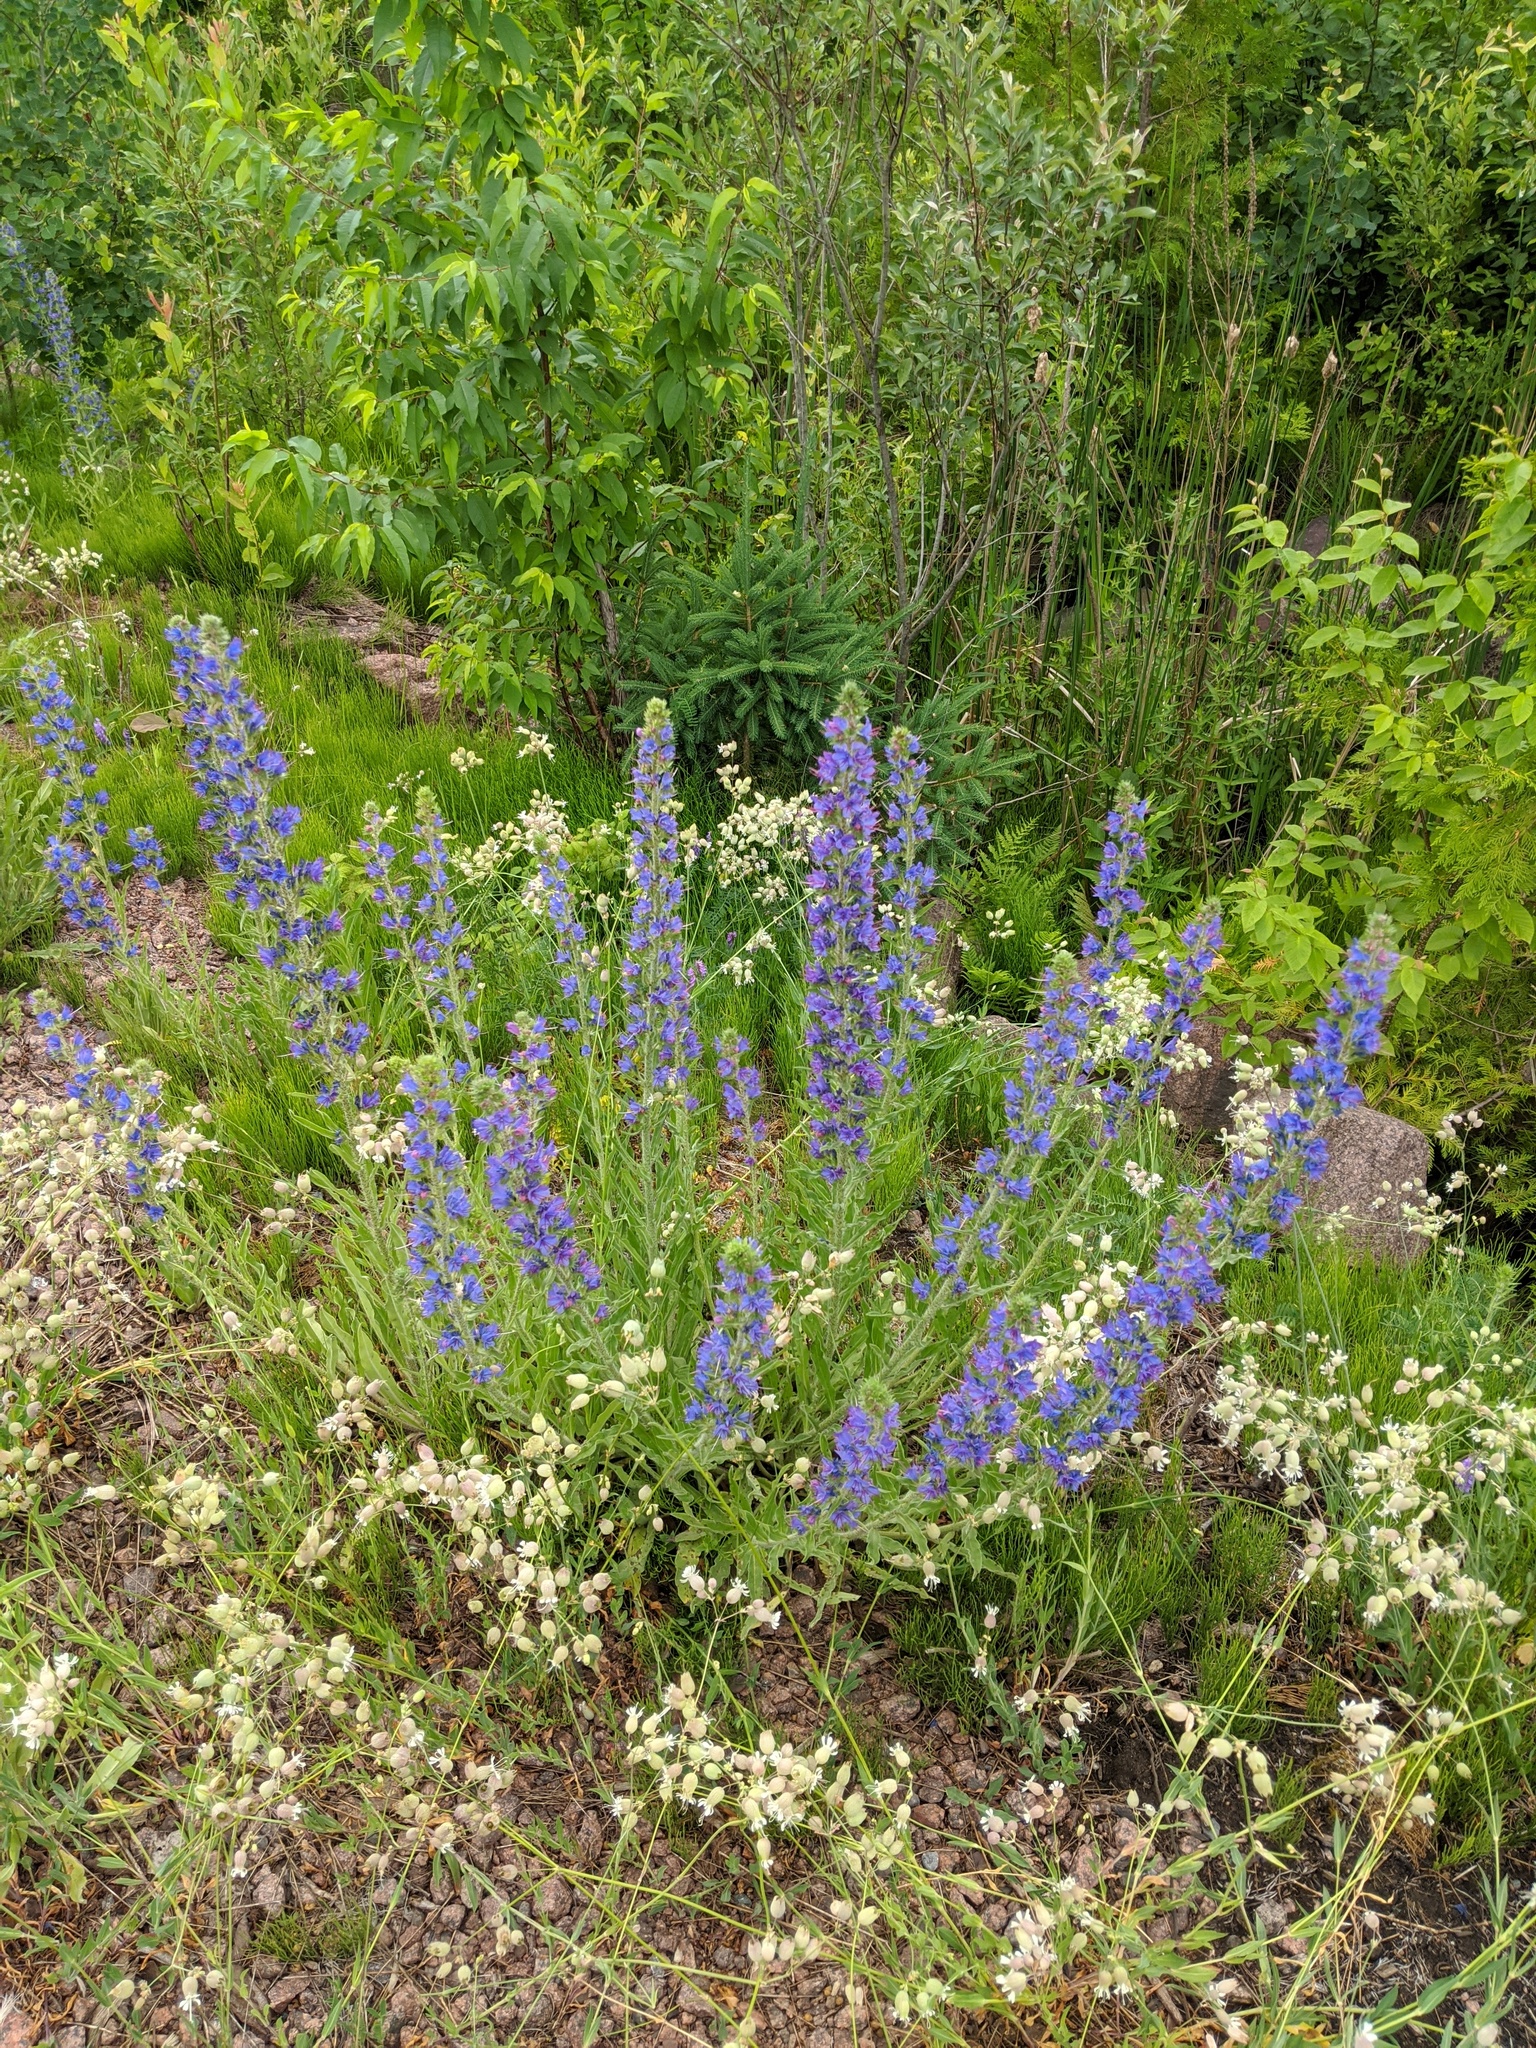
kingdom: Plantae
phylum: Tracheophyta
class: Magnoliopsida
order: Boraginales
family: Boraginaceae
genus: Echium
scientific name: Echium vulgare
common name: Common viper's bugloss
